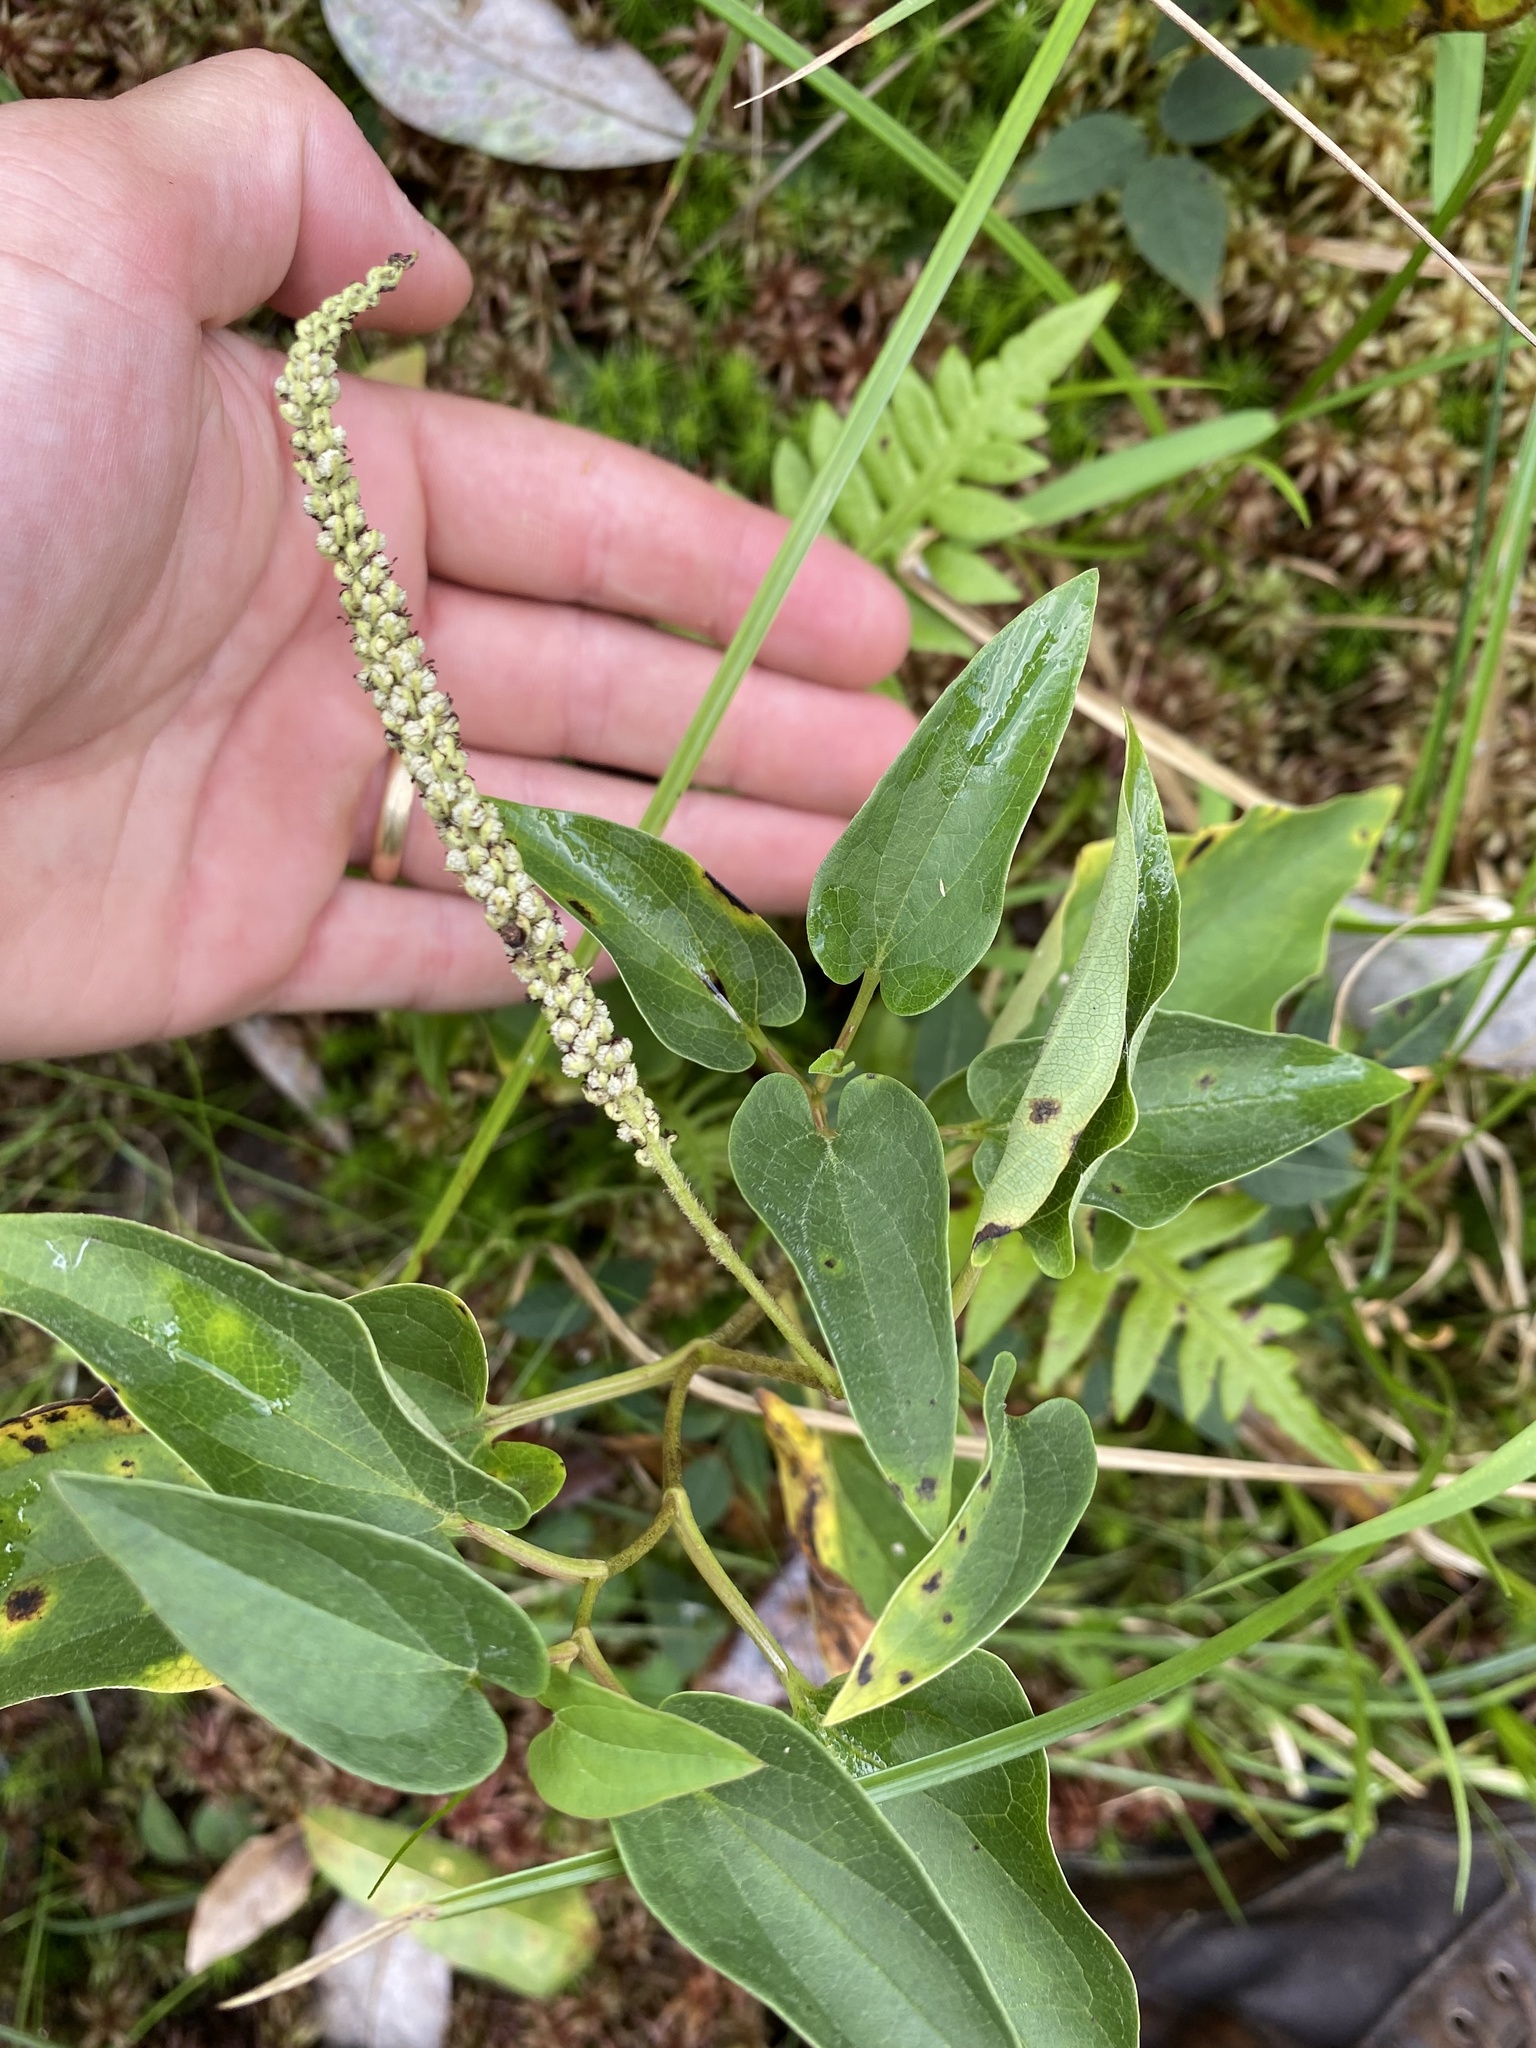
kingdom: Plantae
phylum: Tracheophyta
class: Magnoliopsida
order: Piperales
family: Saururaceae
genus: Saururus
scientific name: Saururus cernuus
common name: Lizard's-tail
